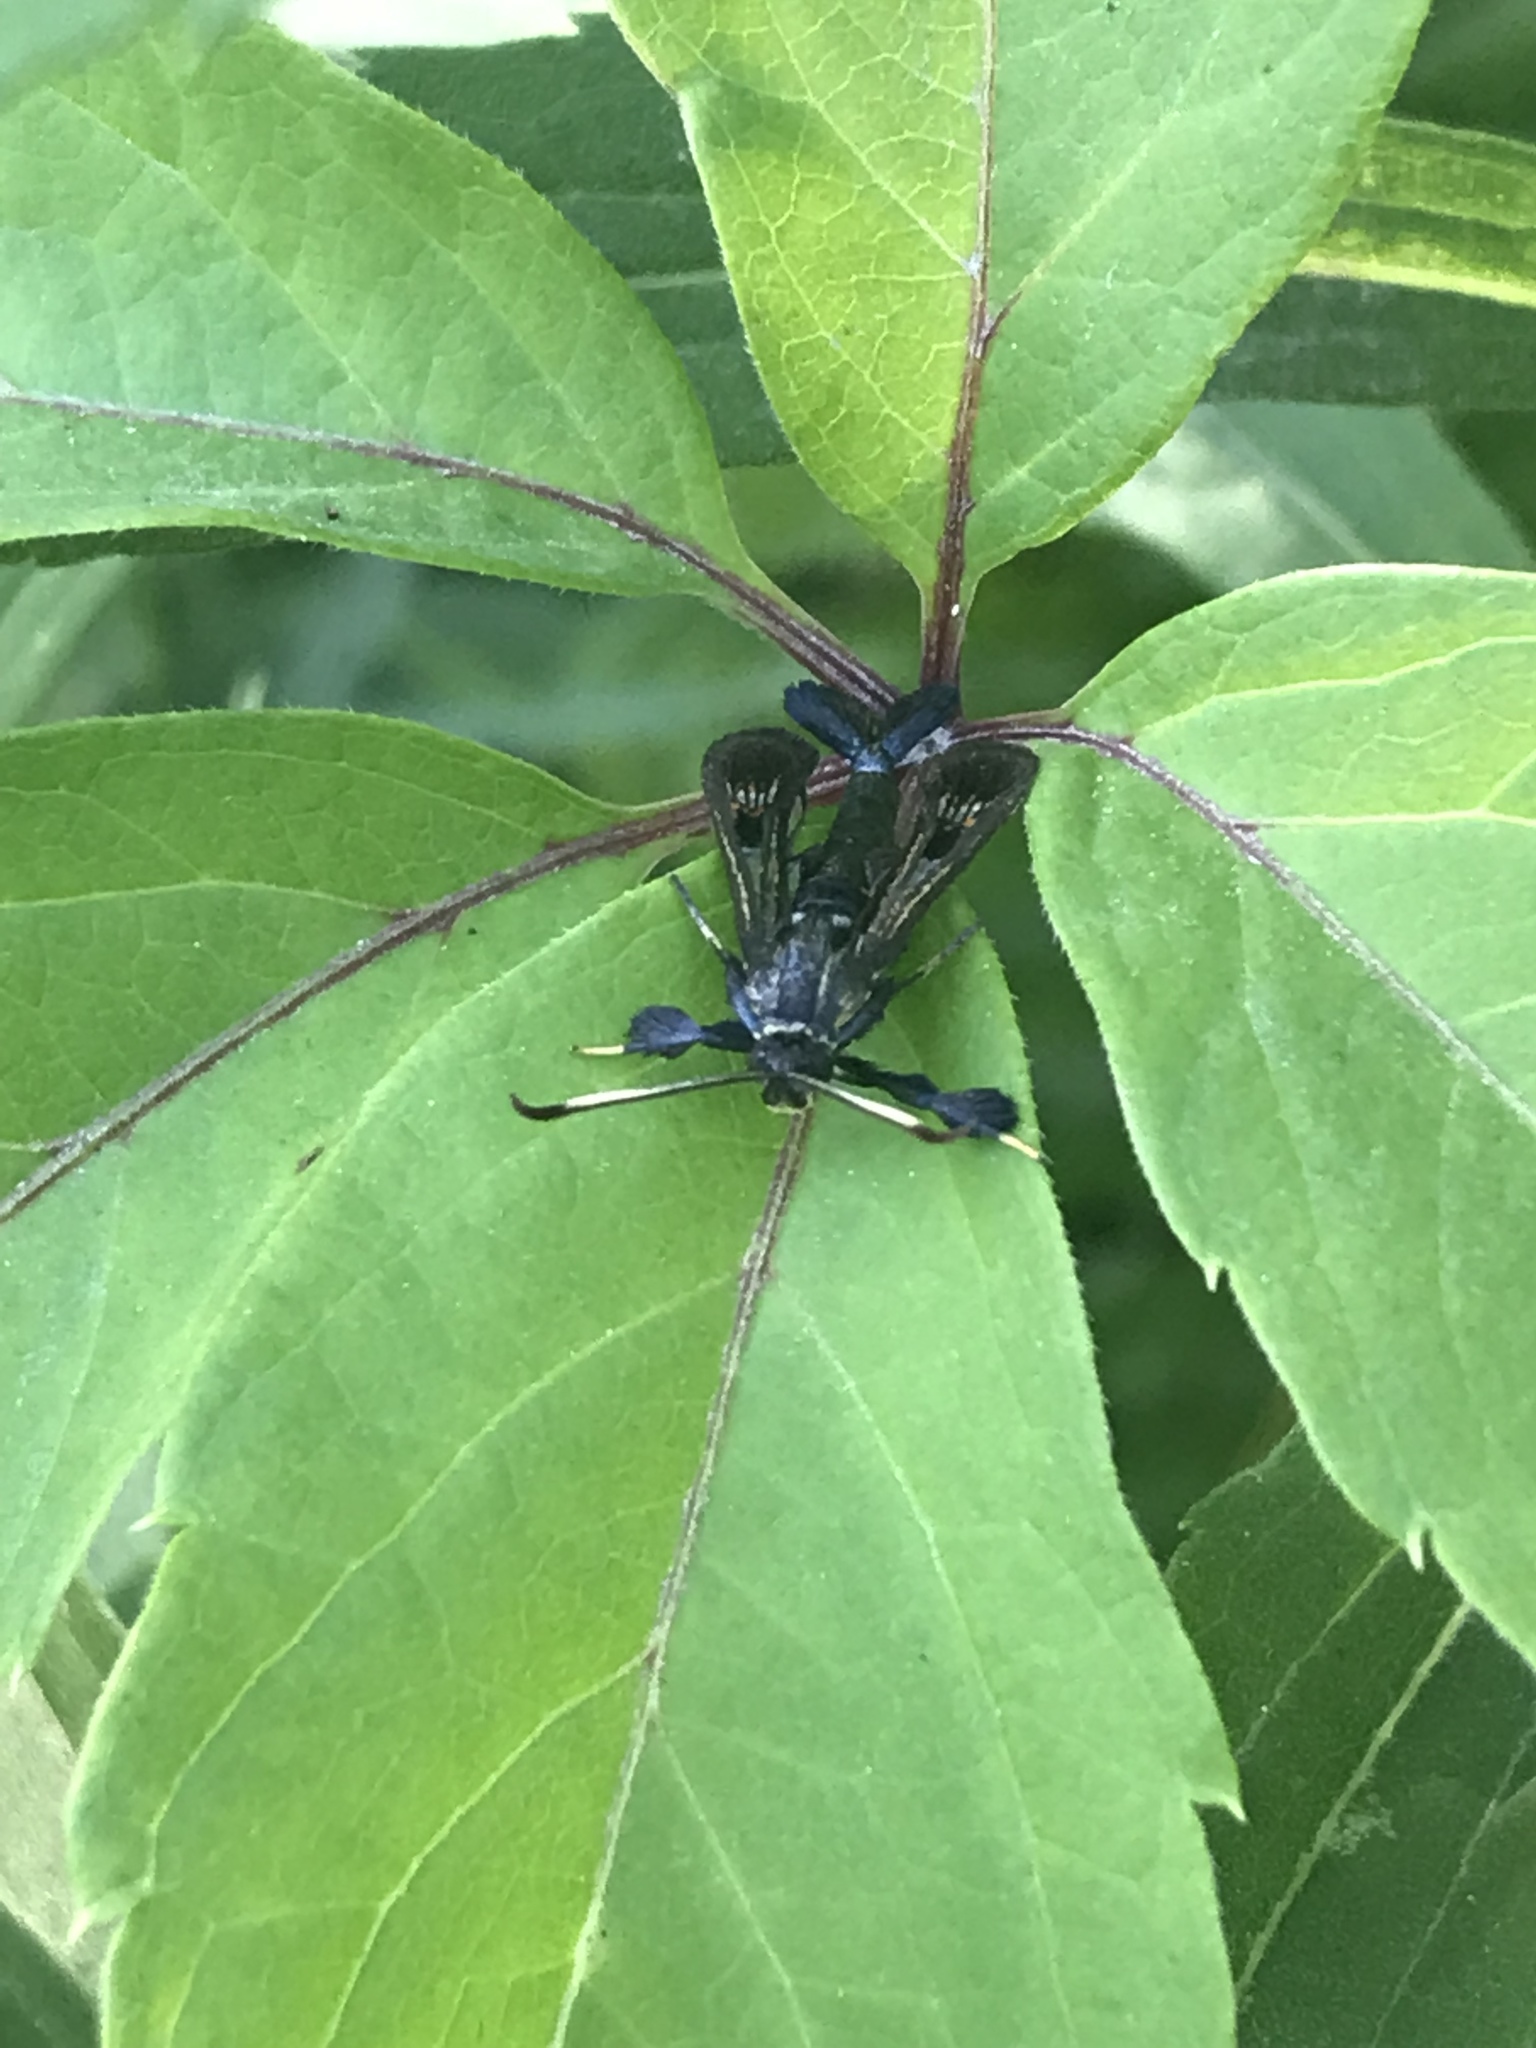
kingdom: Animalia
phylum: Arthropoda
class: Insecta
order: Lepidoptera
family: Sesiidae
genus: Albuna
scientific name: Albuna fraxini
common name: Virginia creeper clearwing
